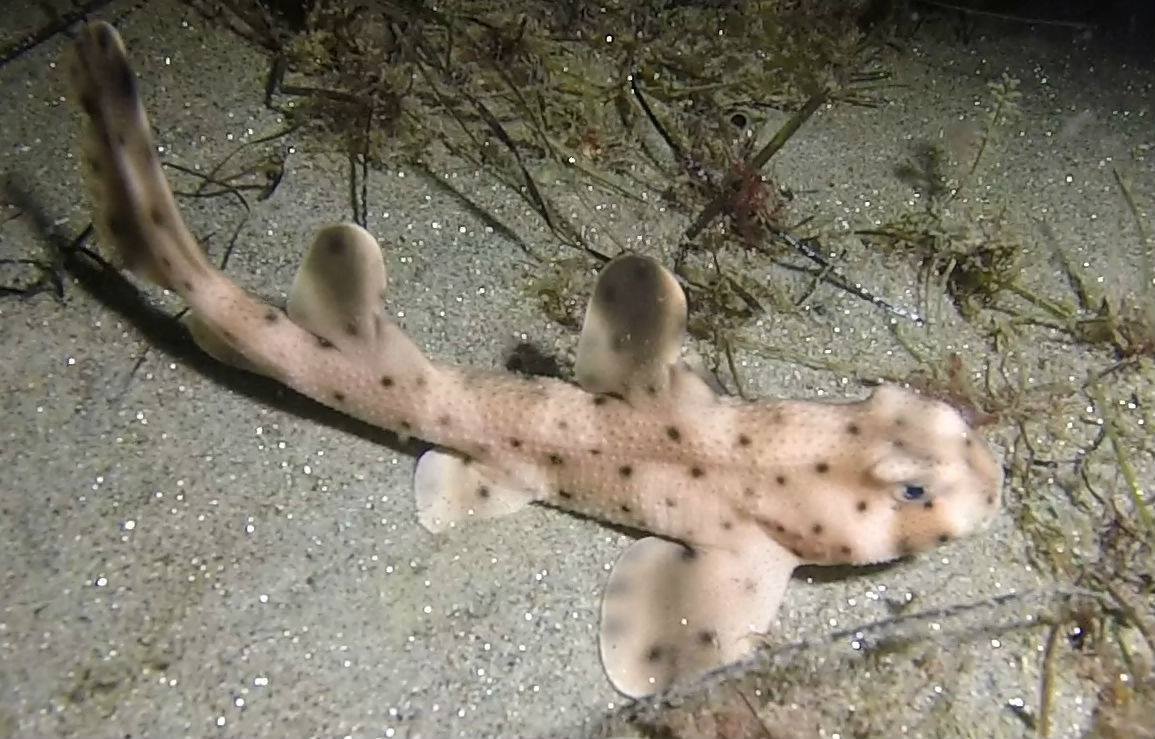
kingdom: Animalia
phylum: Chordata
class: Elasmobranchii
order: Heterodontiformes
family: Heterodontidae
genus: Heterodontus
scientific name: Heterodontus francisci
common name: Horn shark
